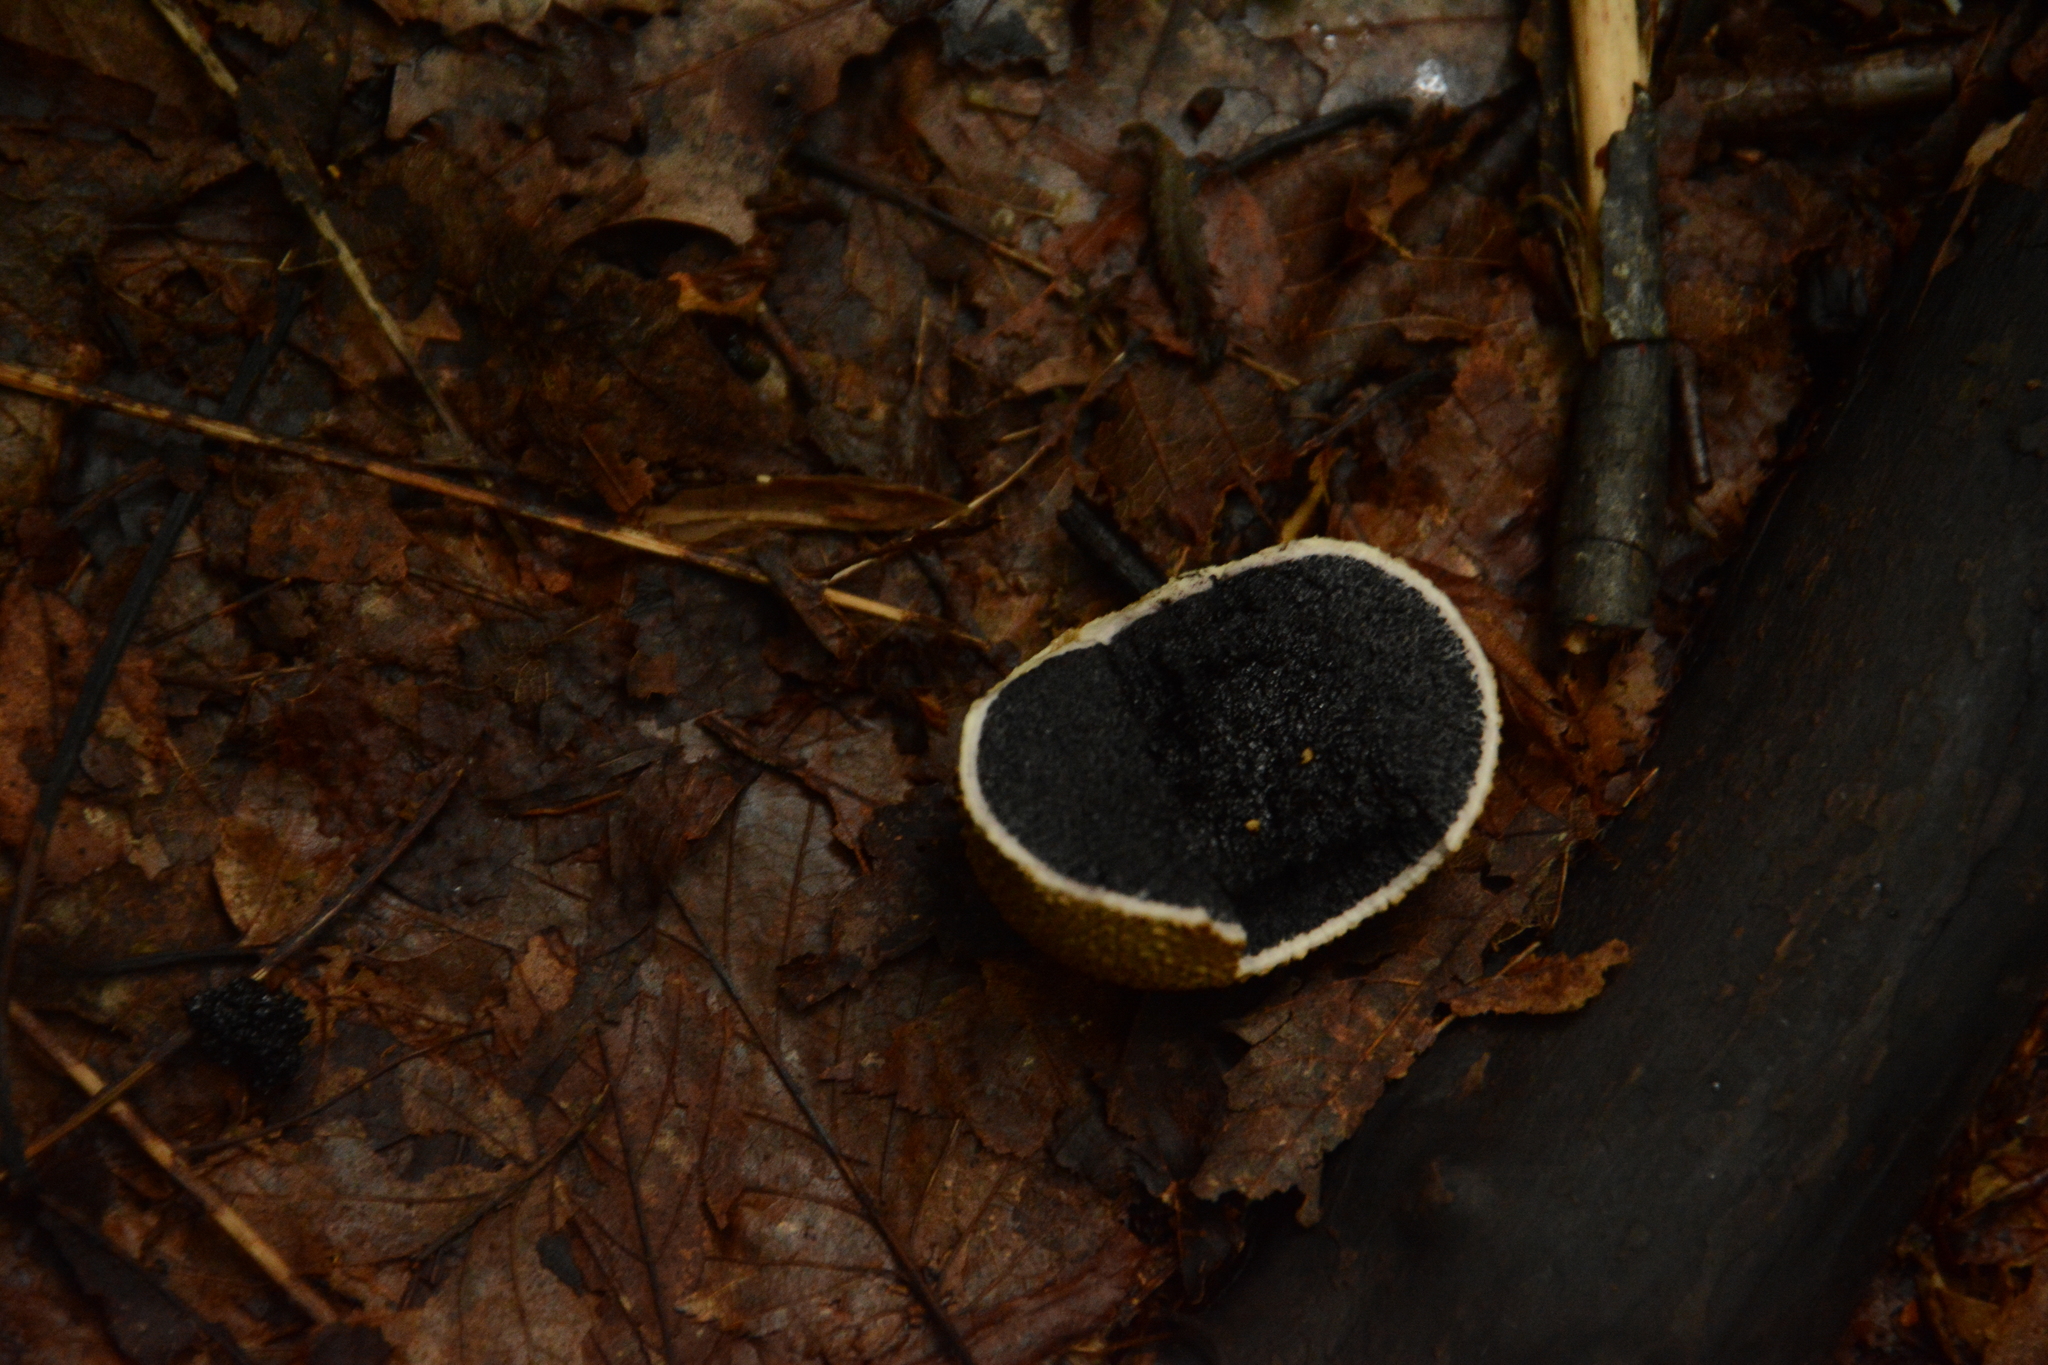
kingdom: Fungi
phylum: Basidiomycota
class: Agaricomycetes
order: Boletales
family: Sclerodermataceae
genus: Scleroderma
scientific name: Scleroderma citrinum
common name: Common earthball
